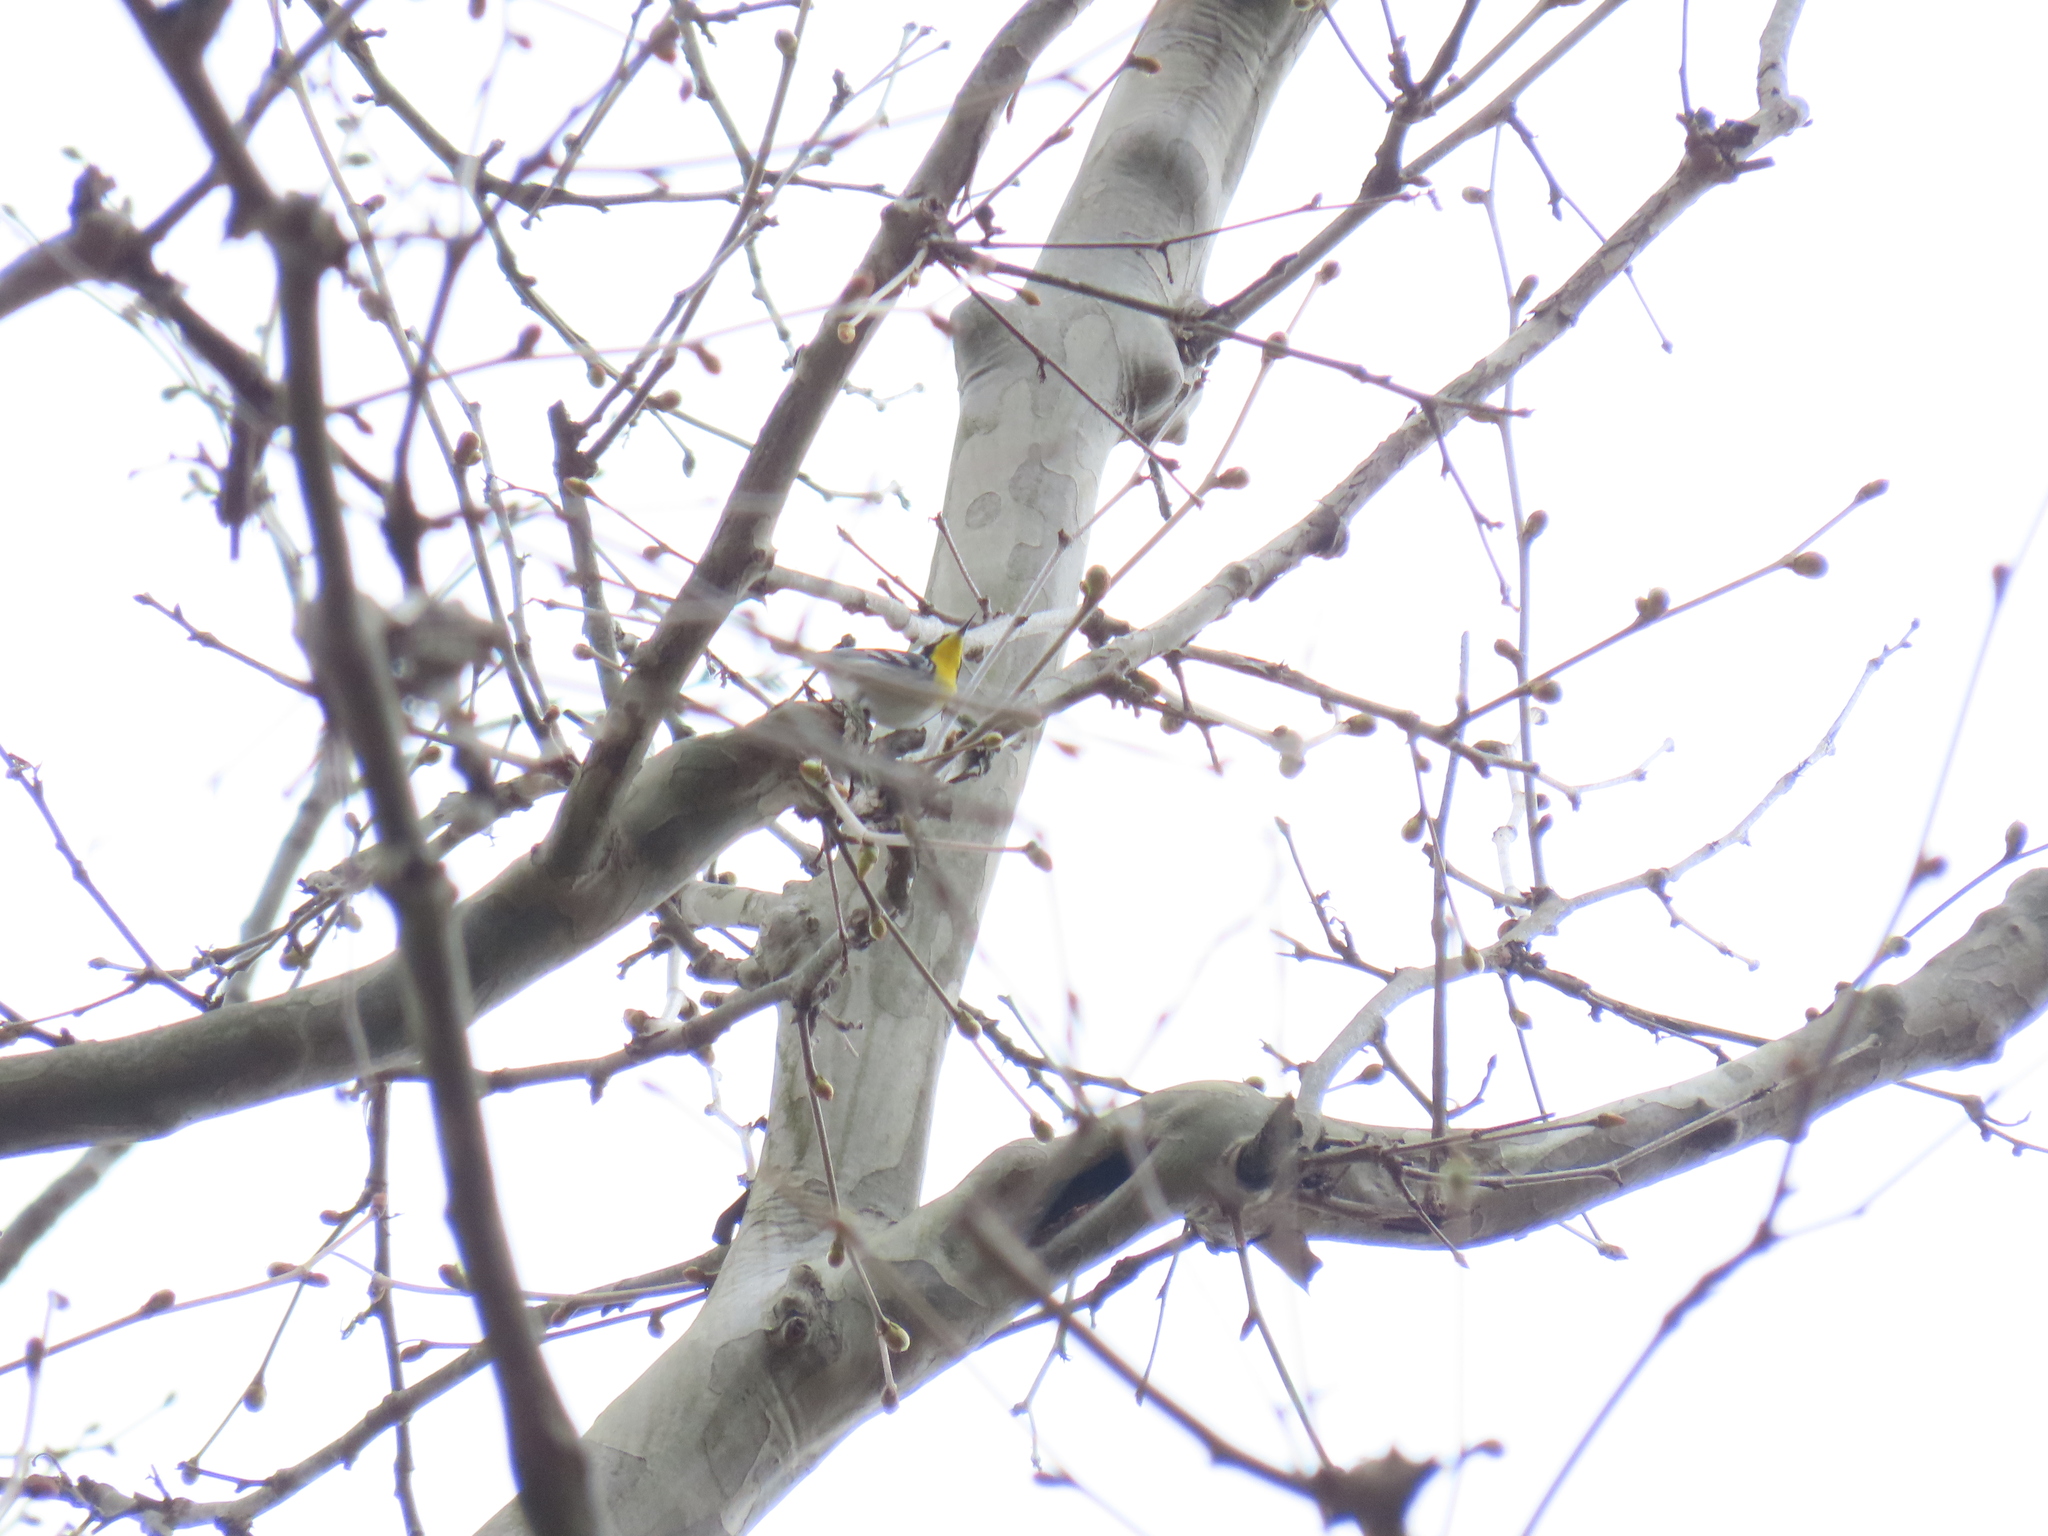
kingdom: Animalia
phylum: Chordata
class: Aves
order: Passeriformes
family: Parulidae
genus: Setophaga
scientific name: Setophaga dominica
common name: Yellow-throated warbler
